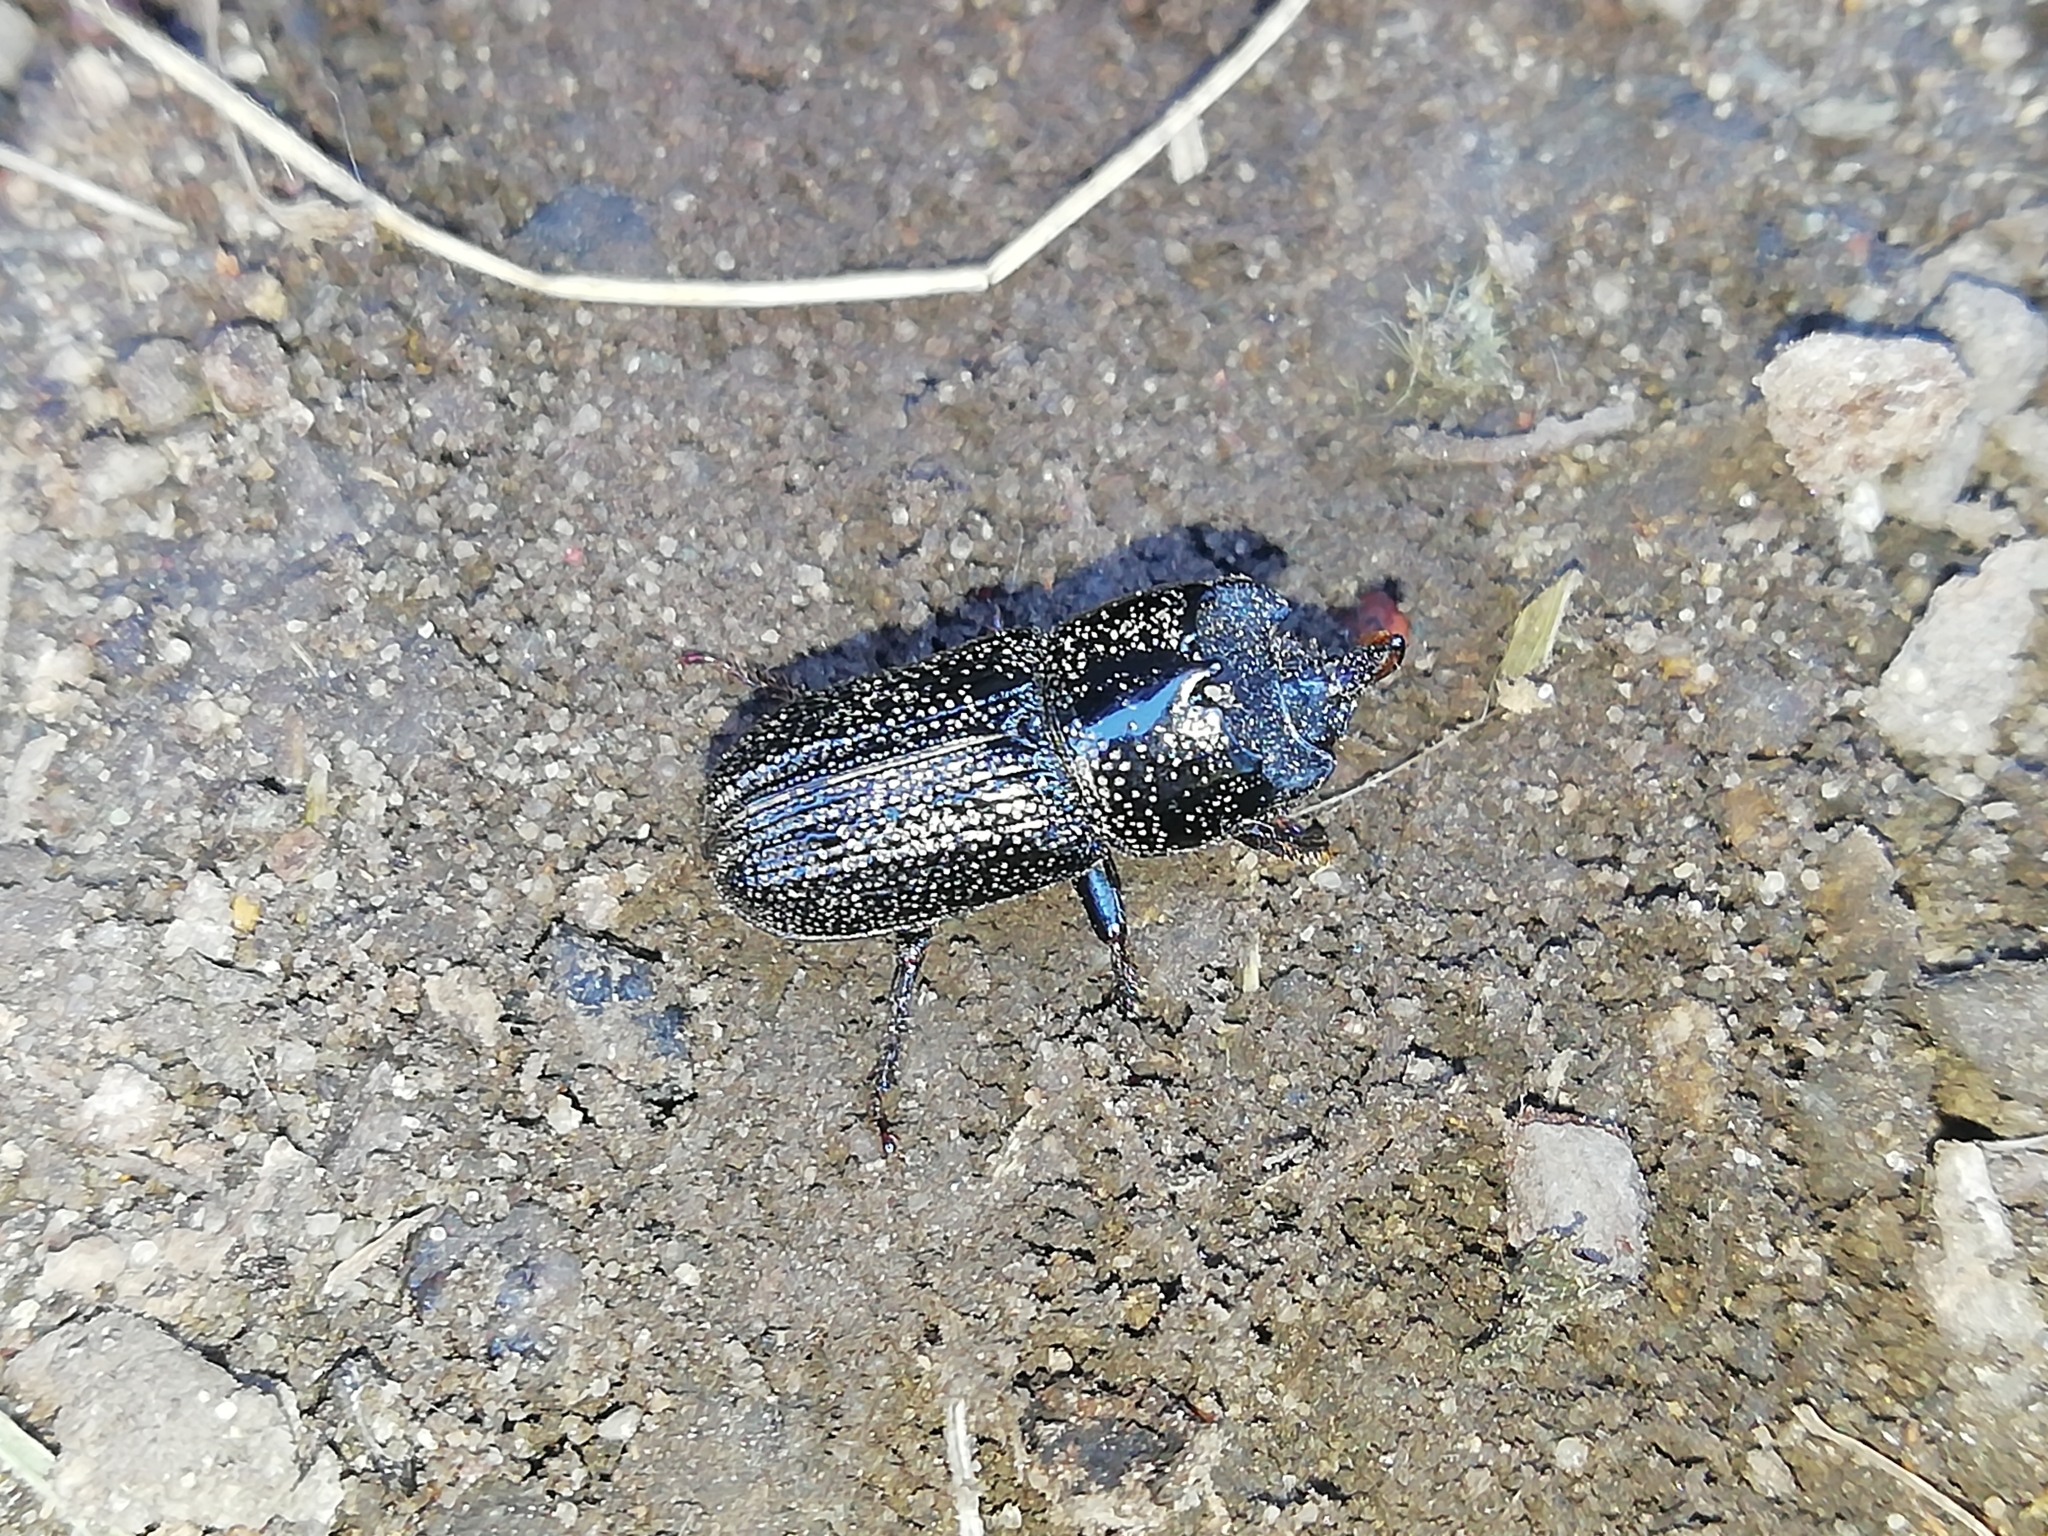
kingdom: Animalia
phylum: Arthropoda
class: Insecta
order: Coleoptera
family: Lucanidae
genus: Sinodendron
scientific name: Sinodendron cylindricum
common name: Rhinoceros beetle
